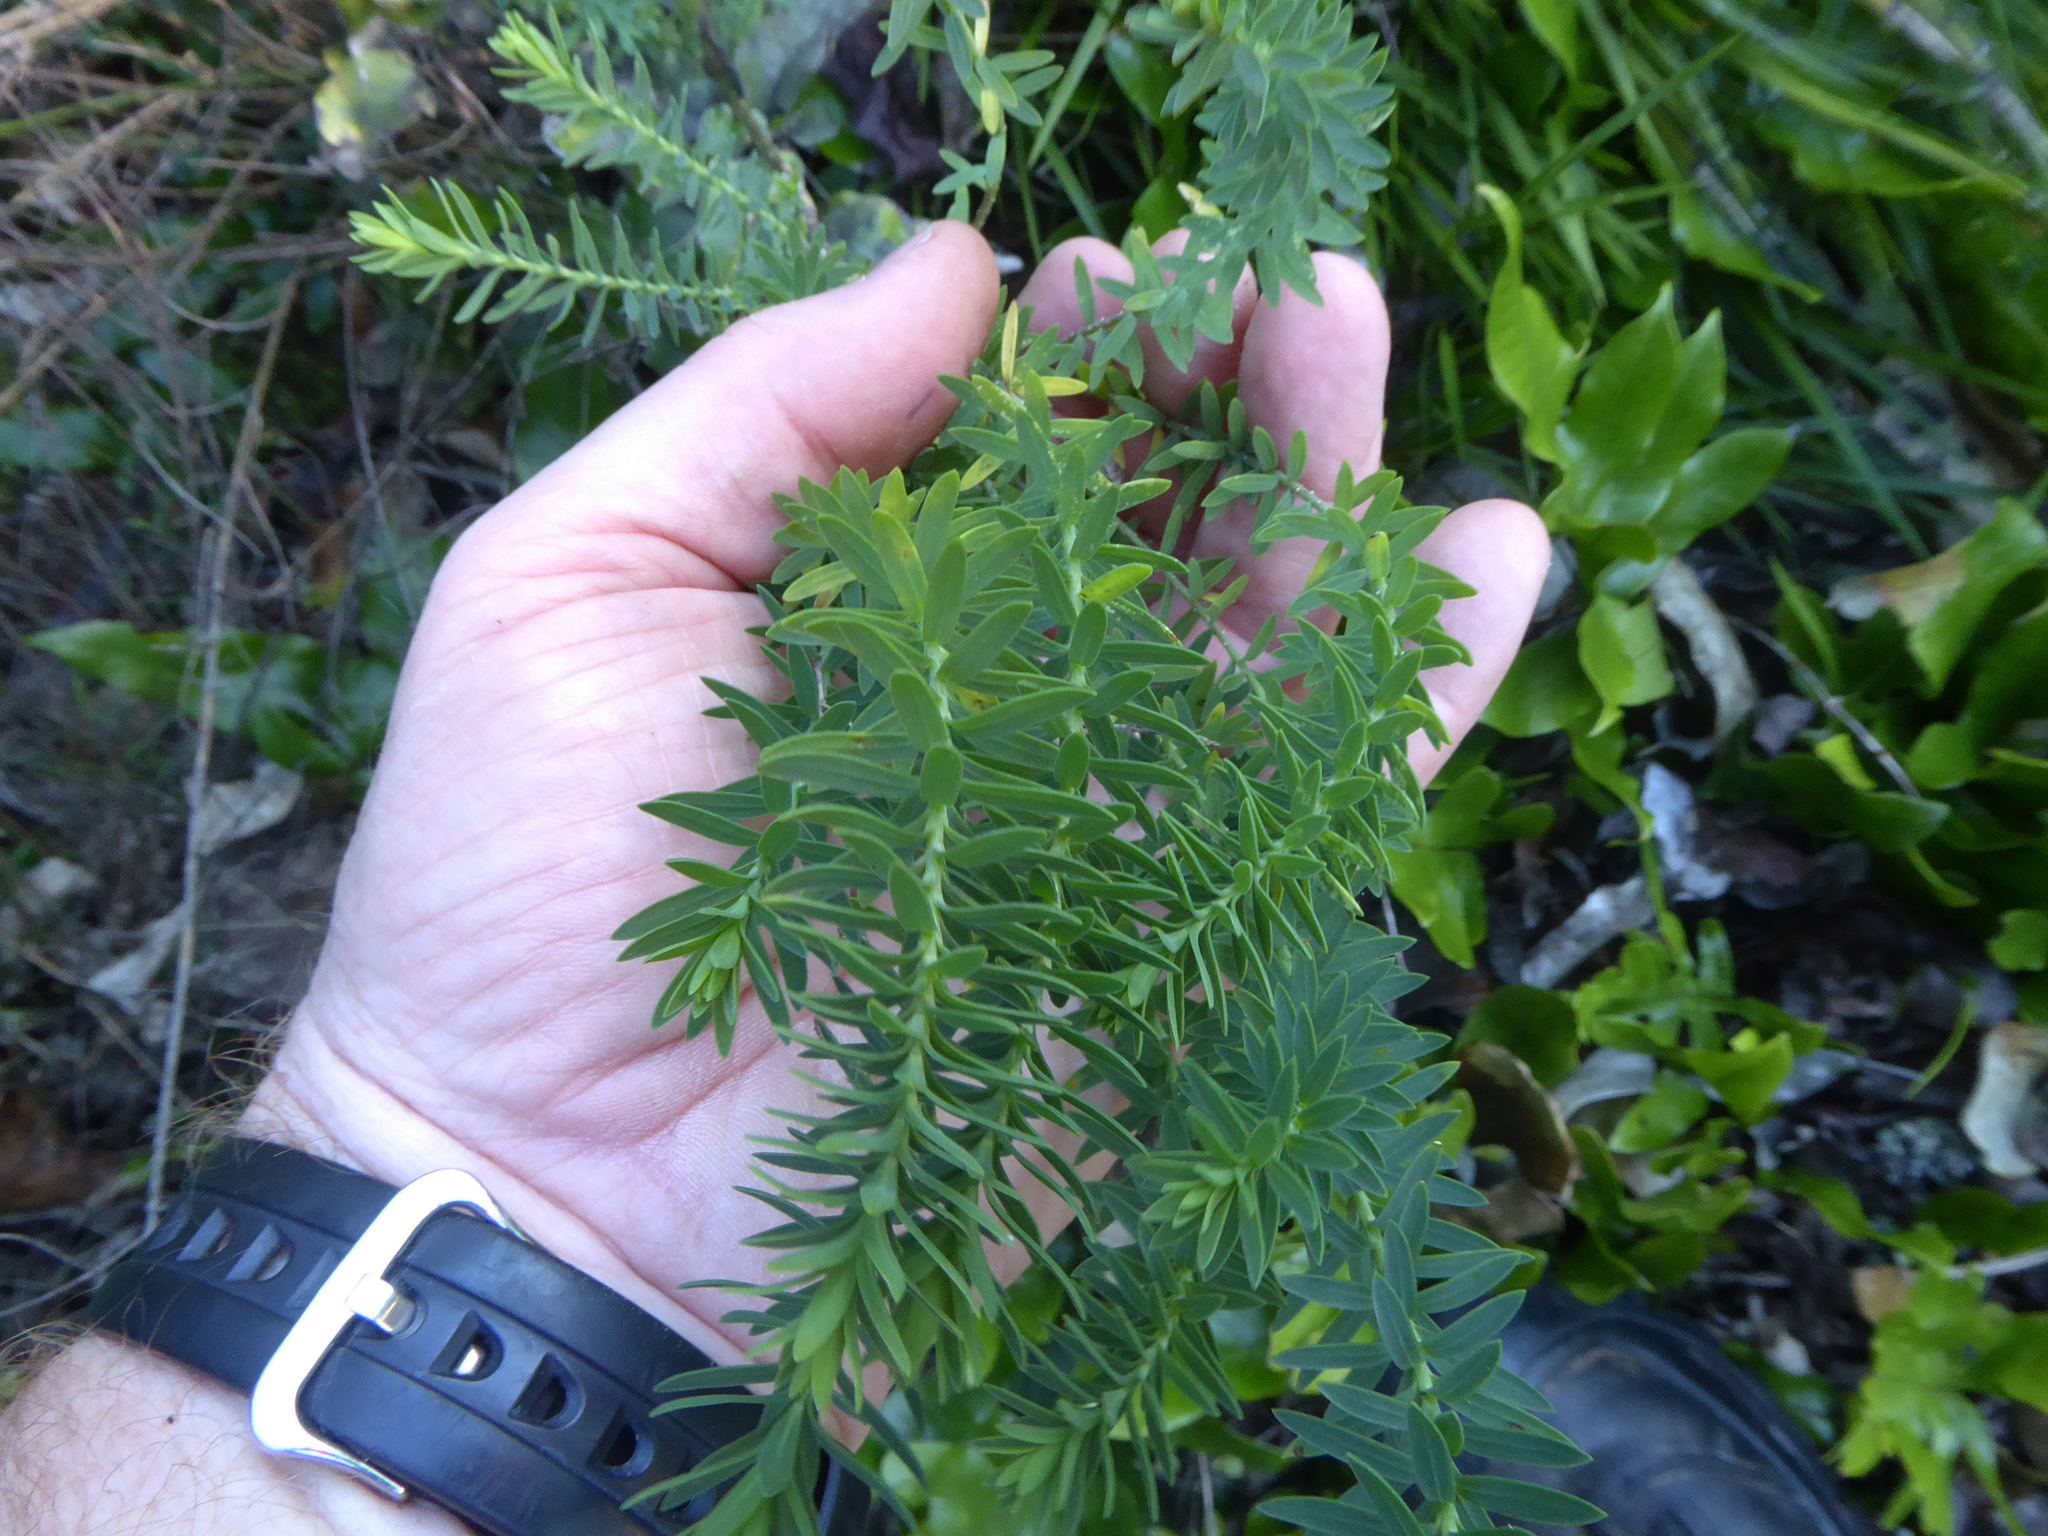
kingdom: Plantae
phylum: Tracheophyta
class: Magnoliopsida
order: Malpighiales
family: Linaceae
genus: Linum
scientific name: Linum monogynum
